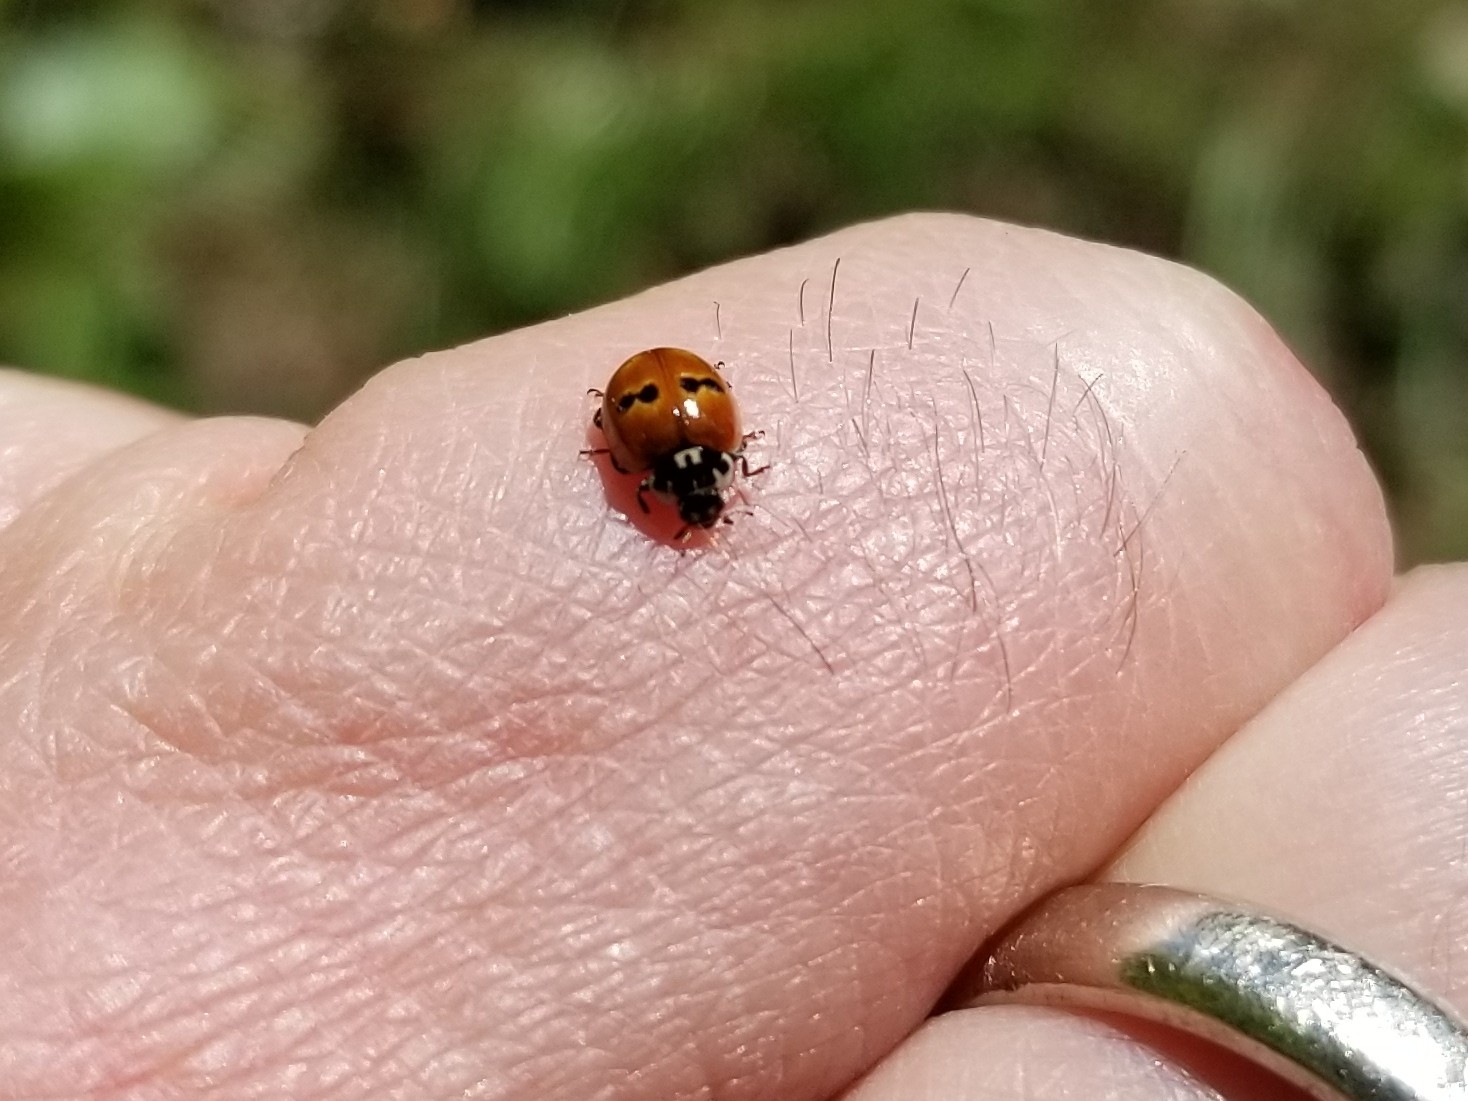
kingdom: Animalia
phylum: Arthropoda
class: Insecta
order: Coleoptera
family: Coccinellidae
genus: Adalia
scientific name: Adalia bipunctata
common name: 2-spot ladybird
